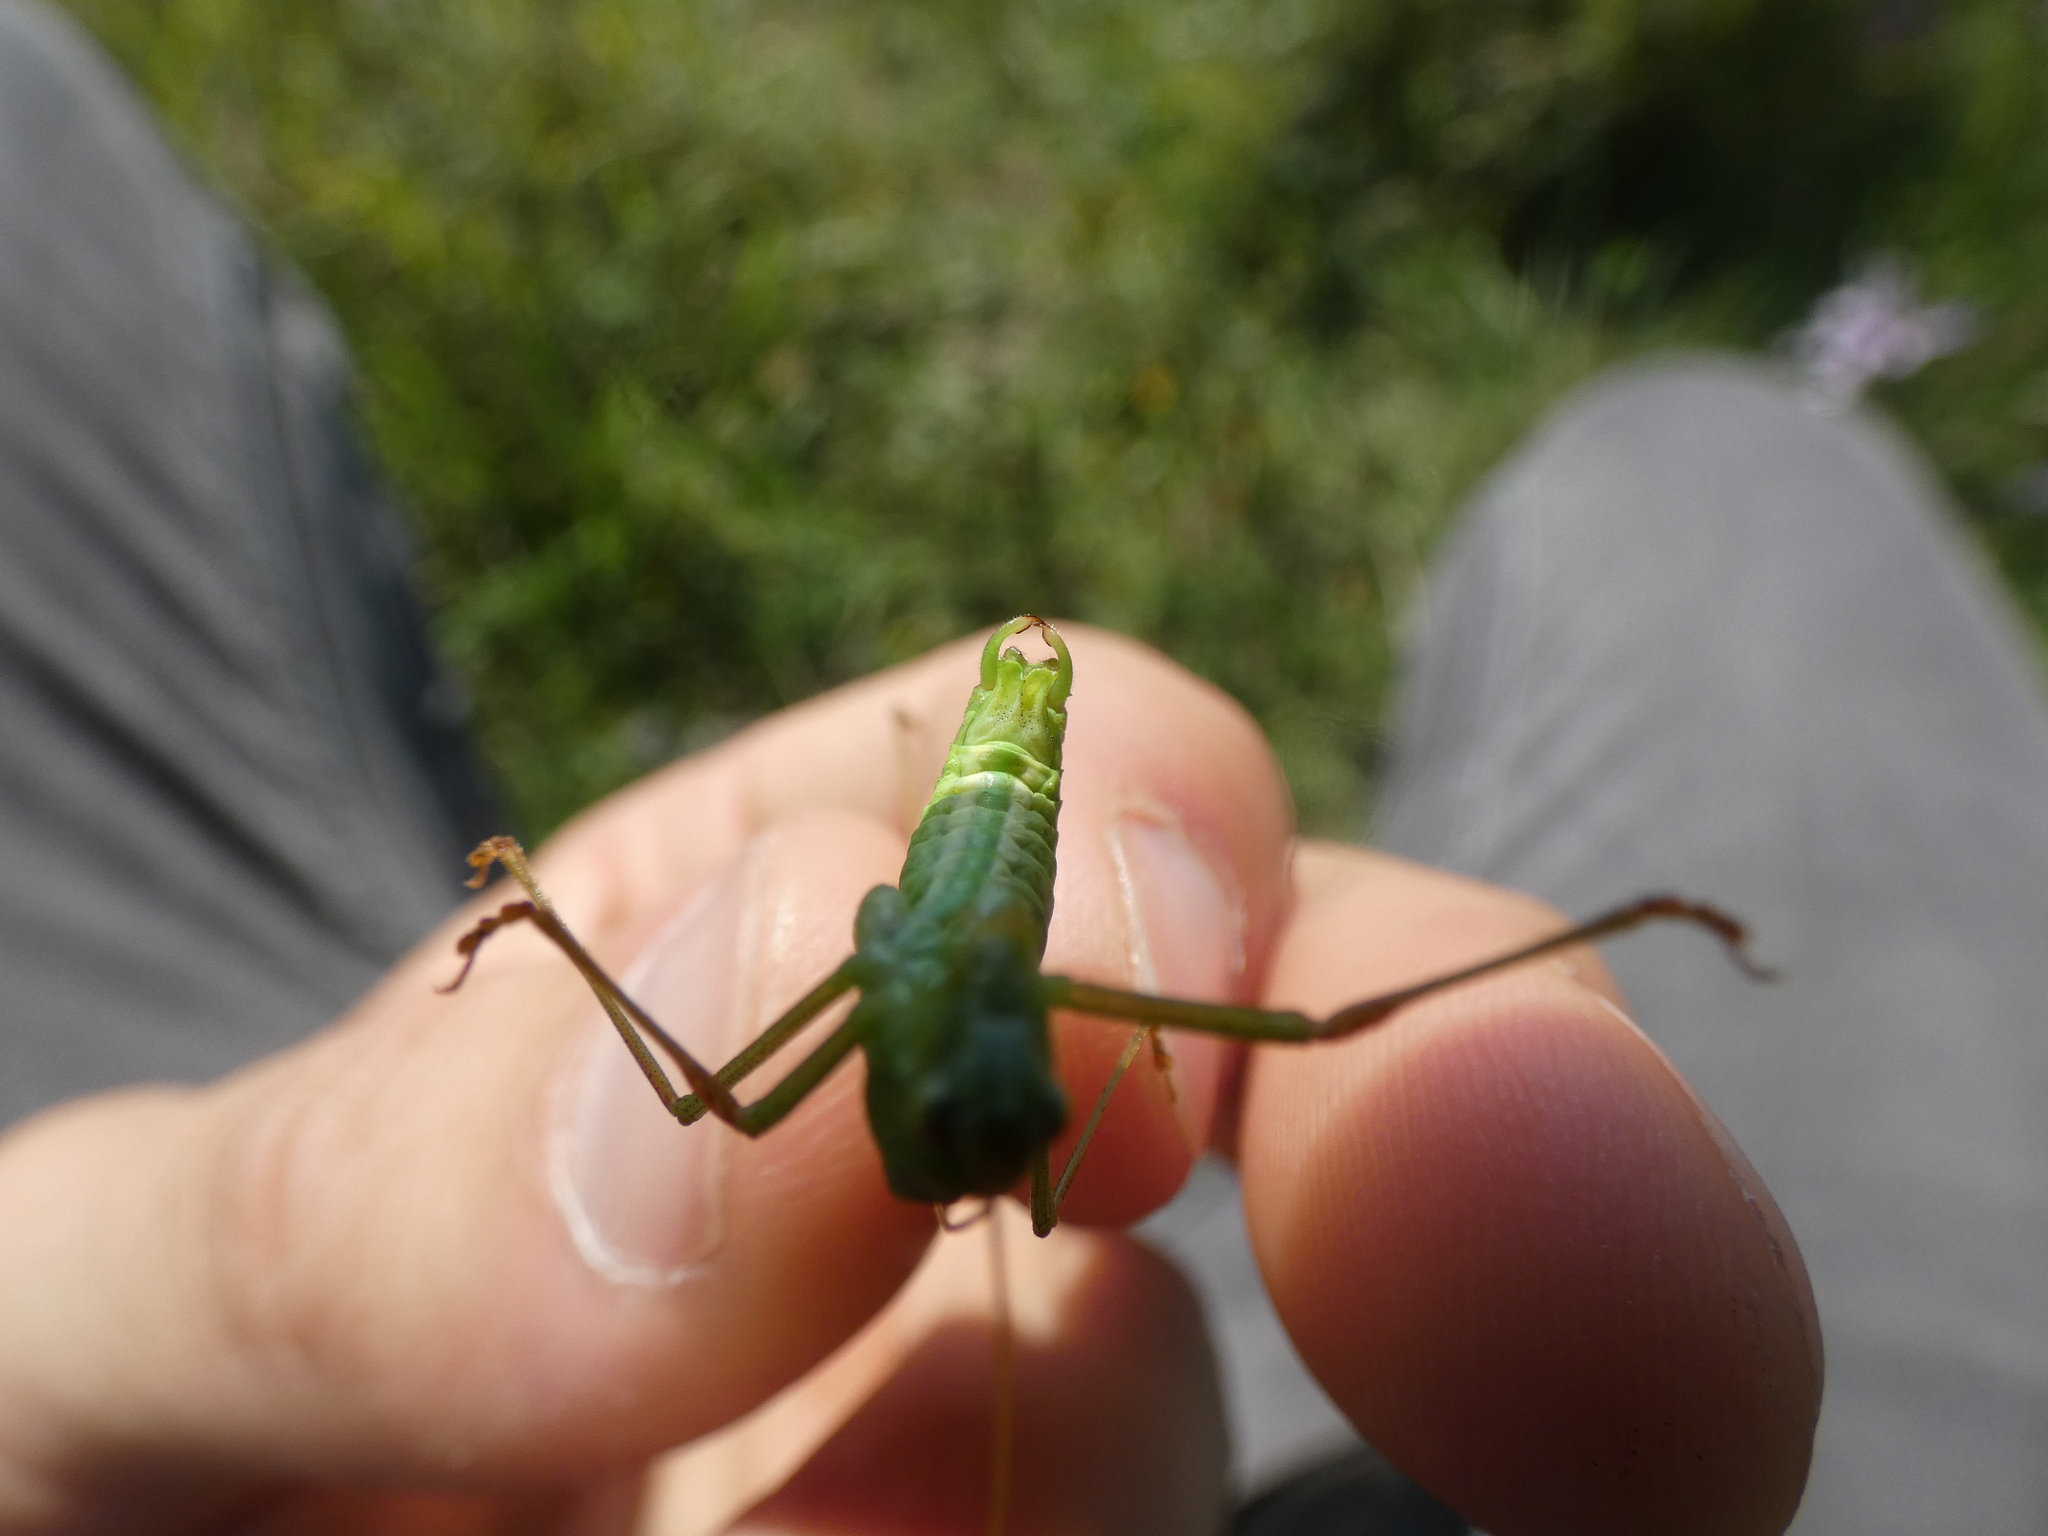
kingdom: Animalia
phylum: Arthropoda
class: Insecta
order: Orthoptera
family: Tettigoniidae
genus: Phaneroptera
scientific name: Phaneroptera falcata
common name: Sickle-bearing bush-cricket
